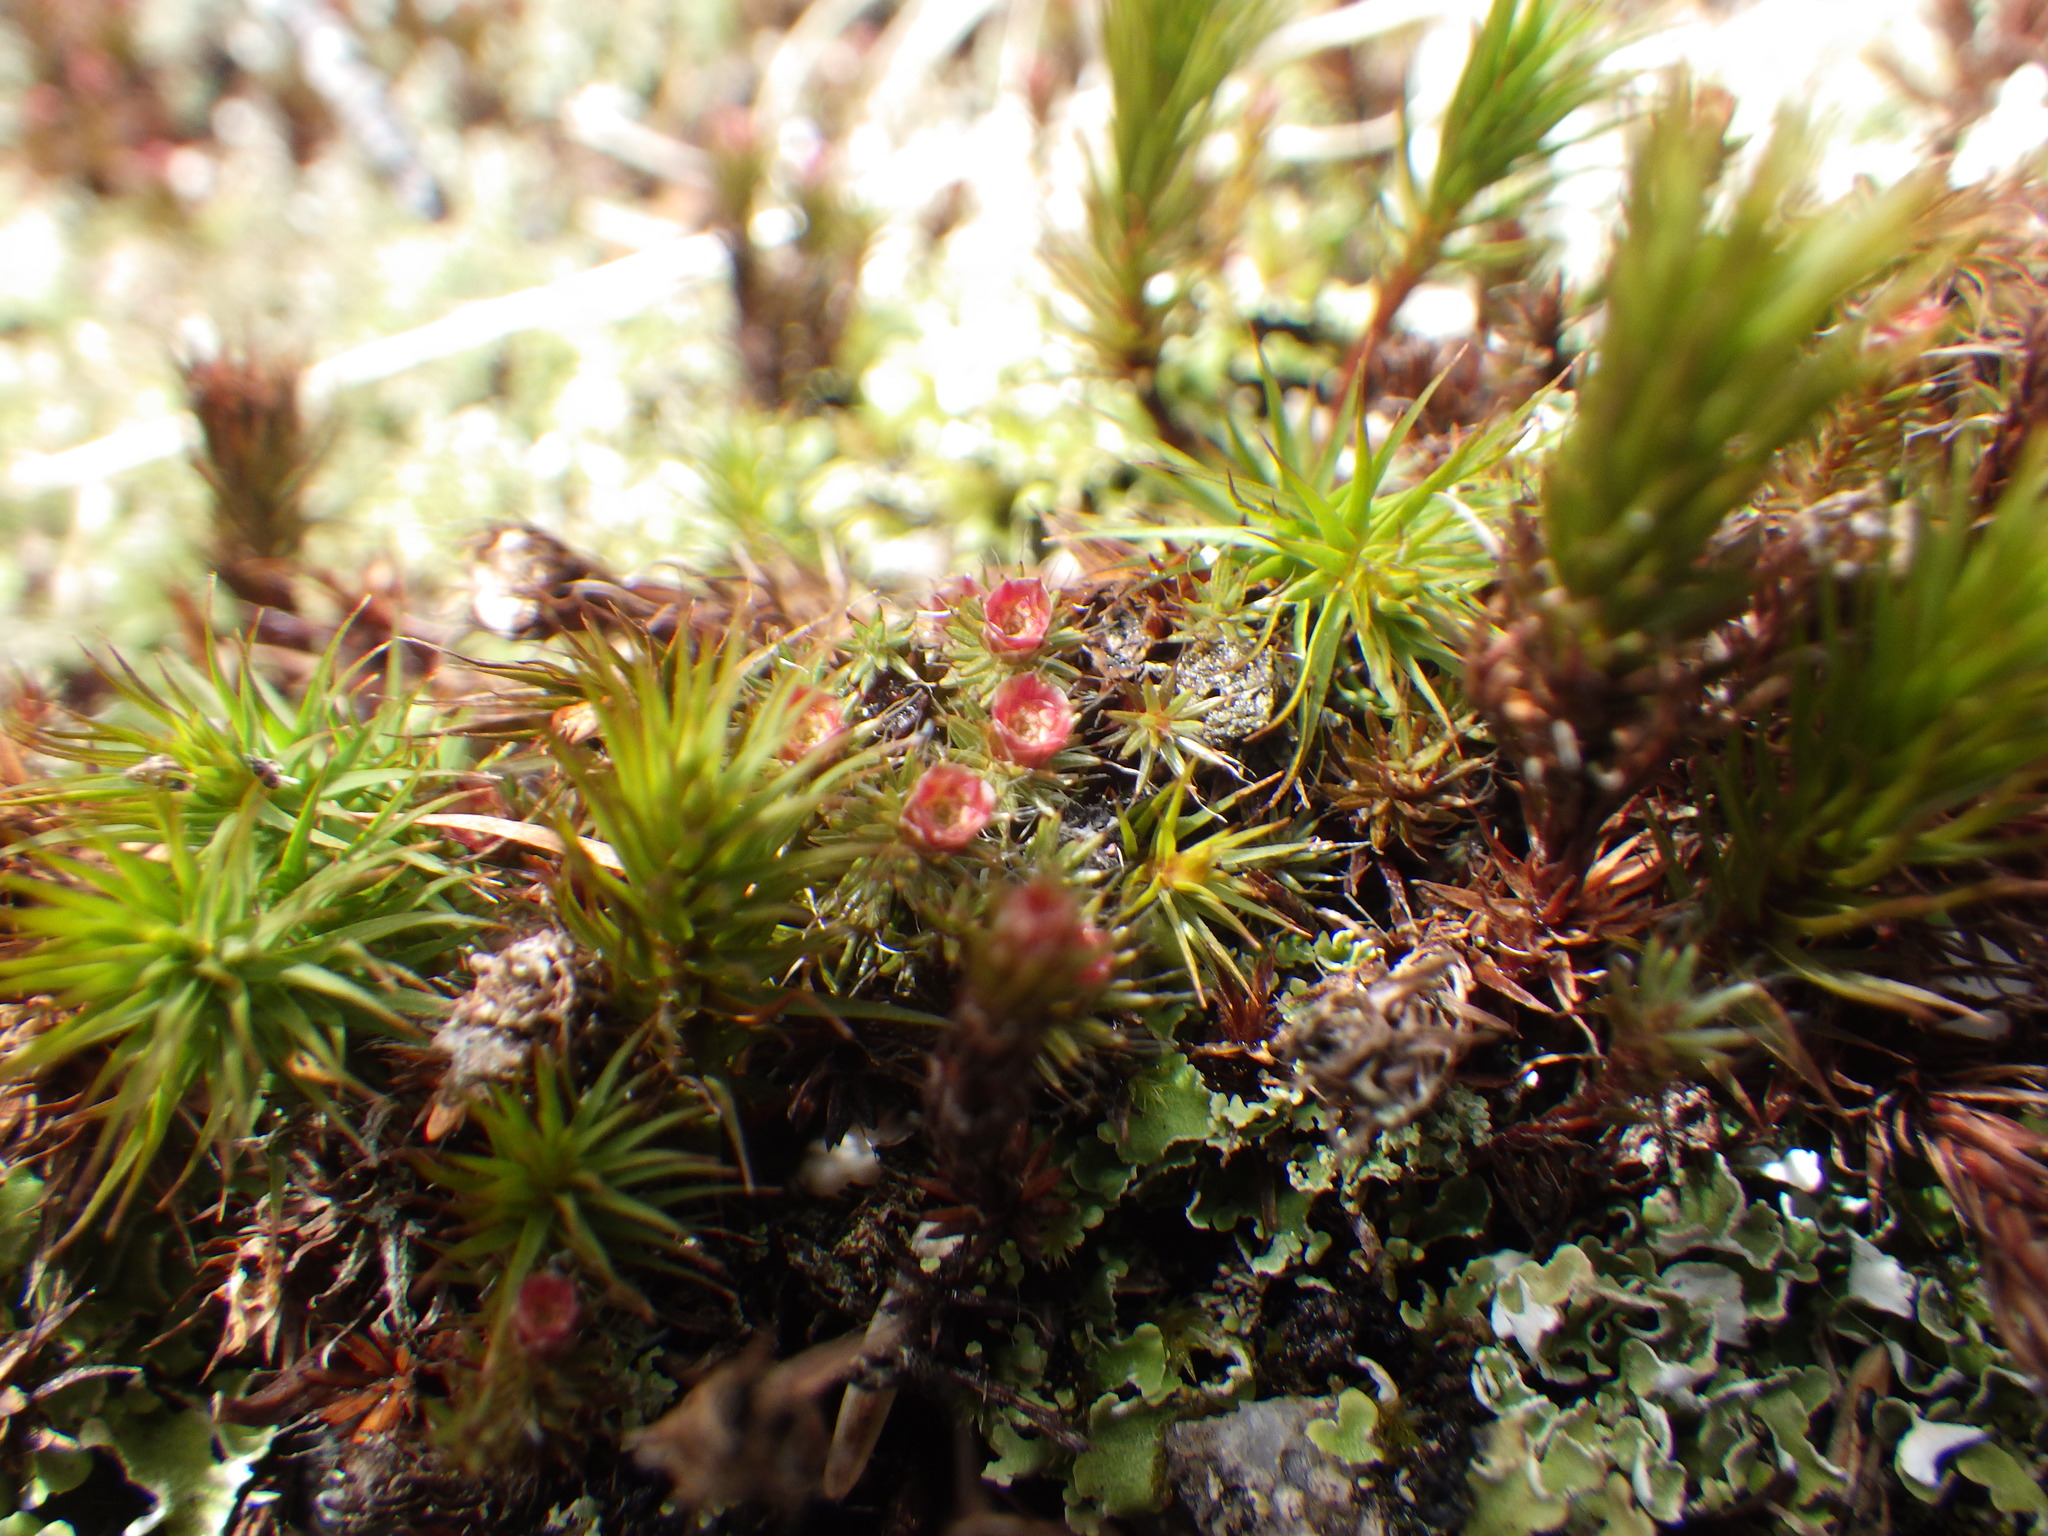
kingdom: Plantae
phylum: Bryophyta
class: Polytrichopsida
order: Polytrichales
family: Polytrichaceae
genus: Polytrichum
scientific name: Polytrichum piliferum
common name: Bristly haircap
